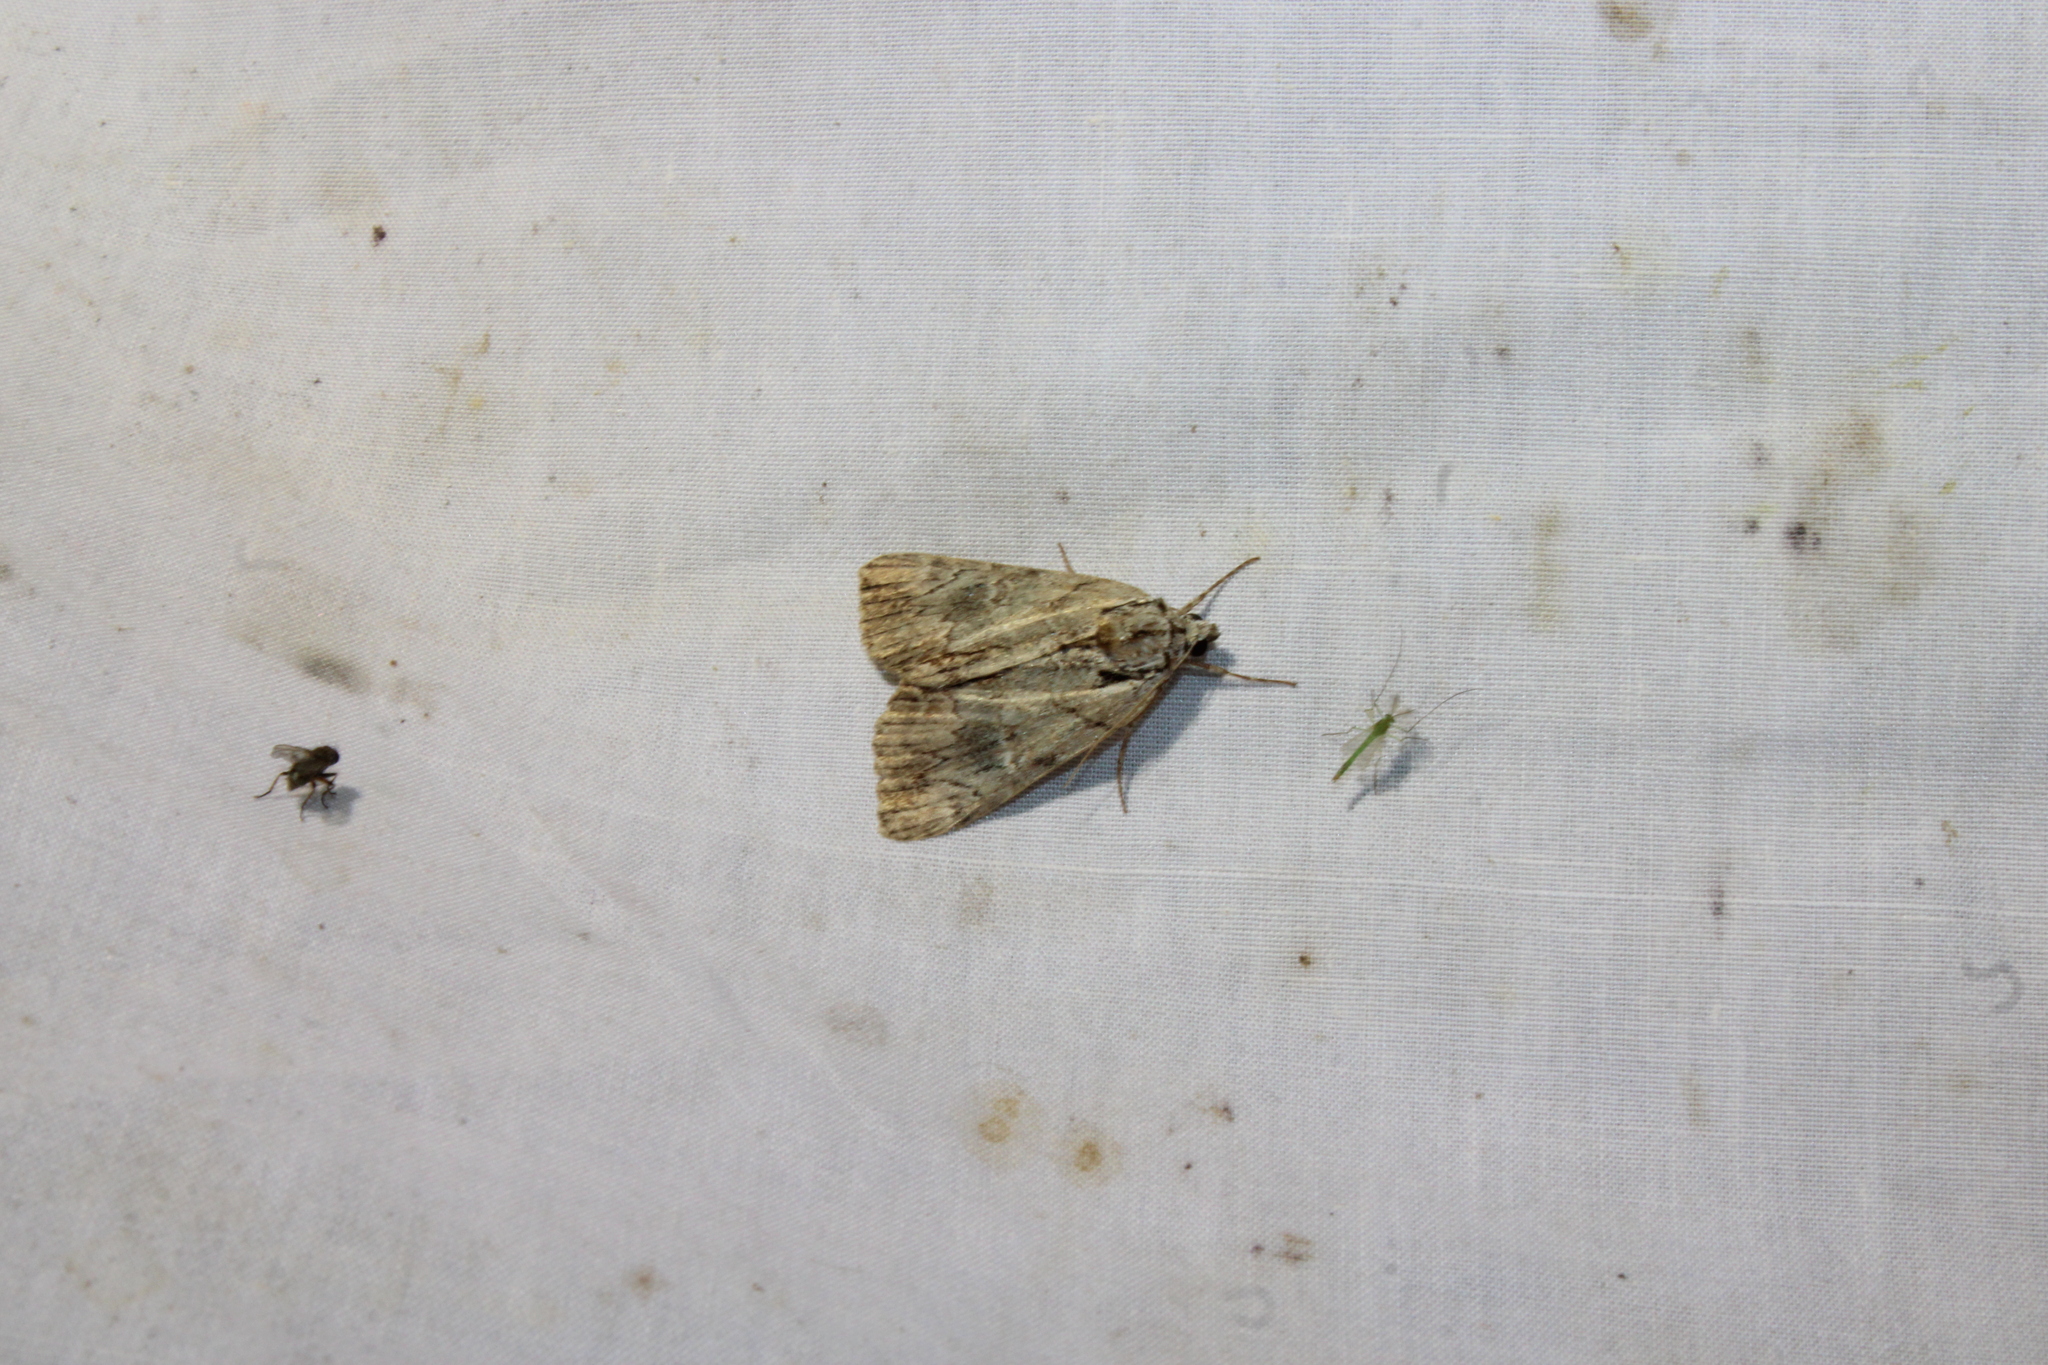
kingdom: Animalia
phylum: Arthropoda
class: Insecta
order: Lepidoptera
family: Erebidae
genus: Catocala
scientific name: Catocala praeclara
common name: Praeclara underwing
